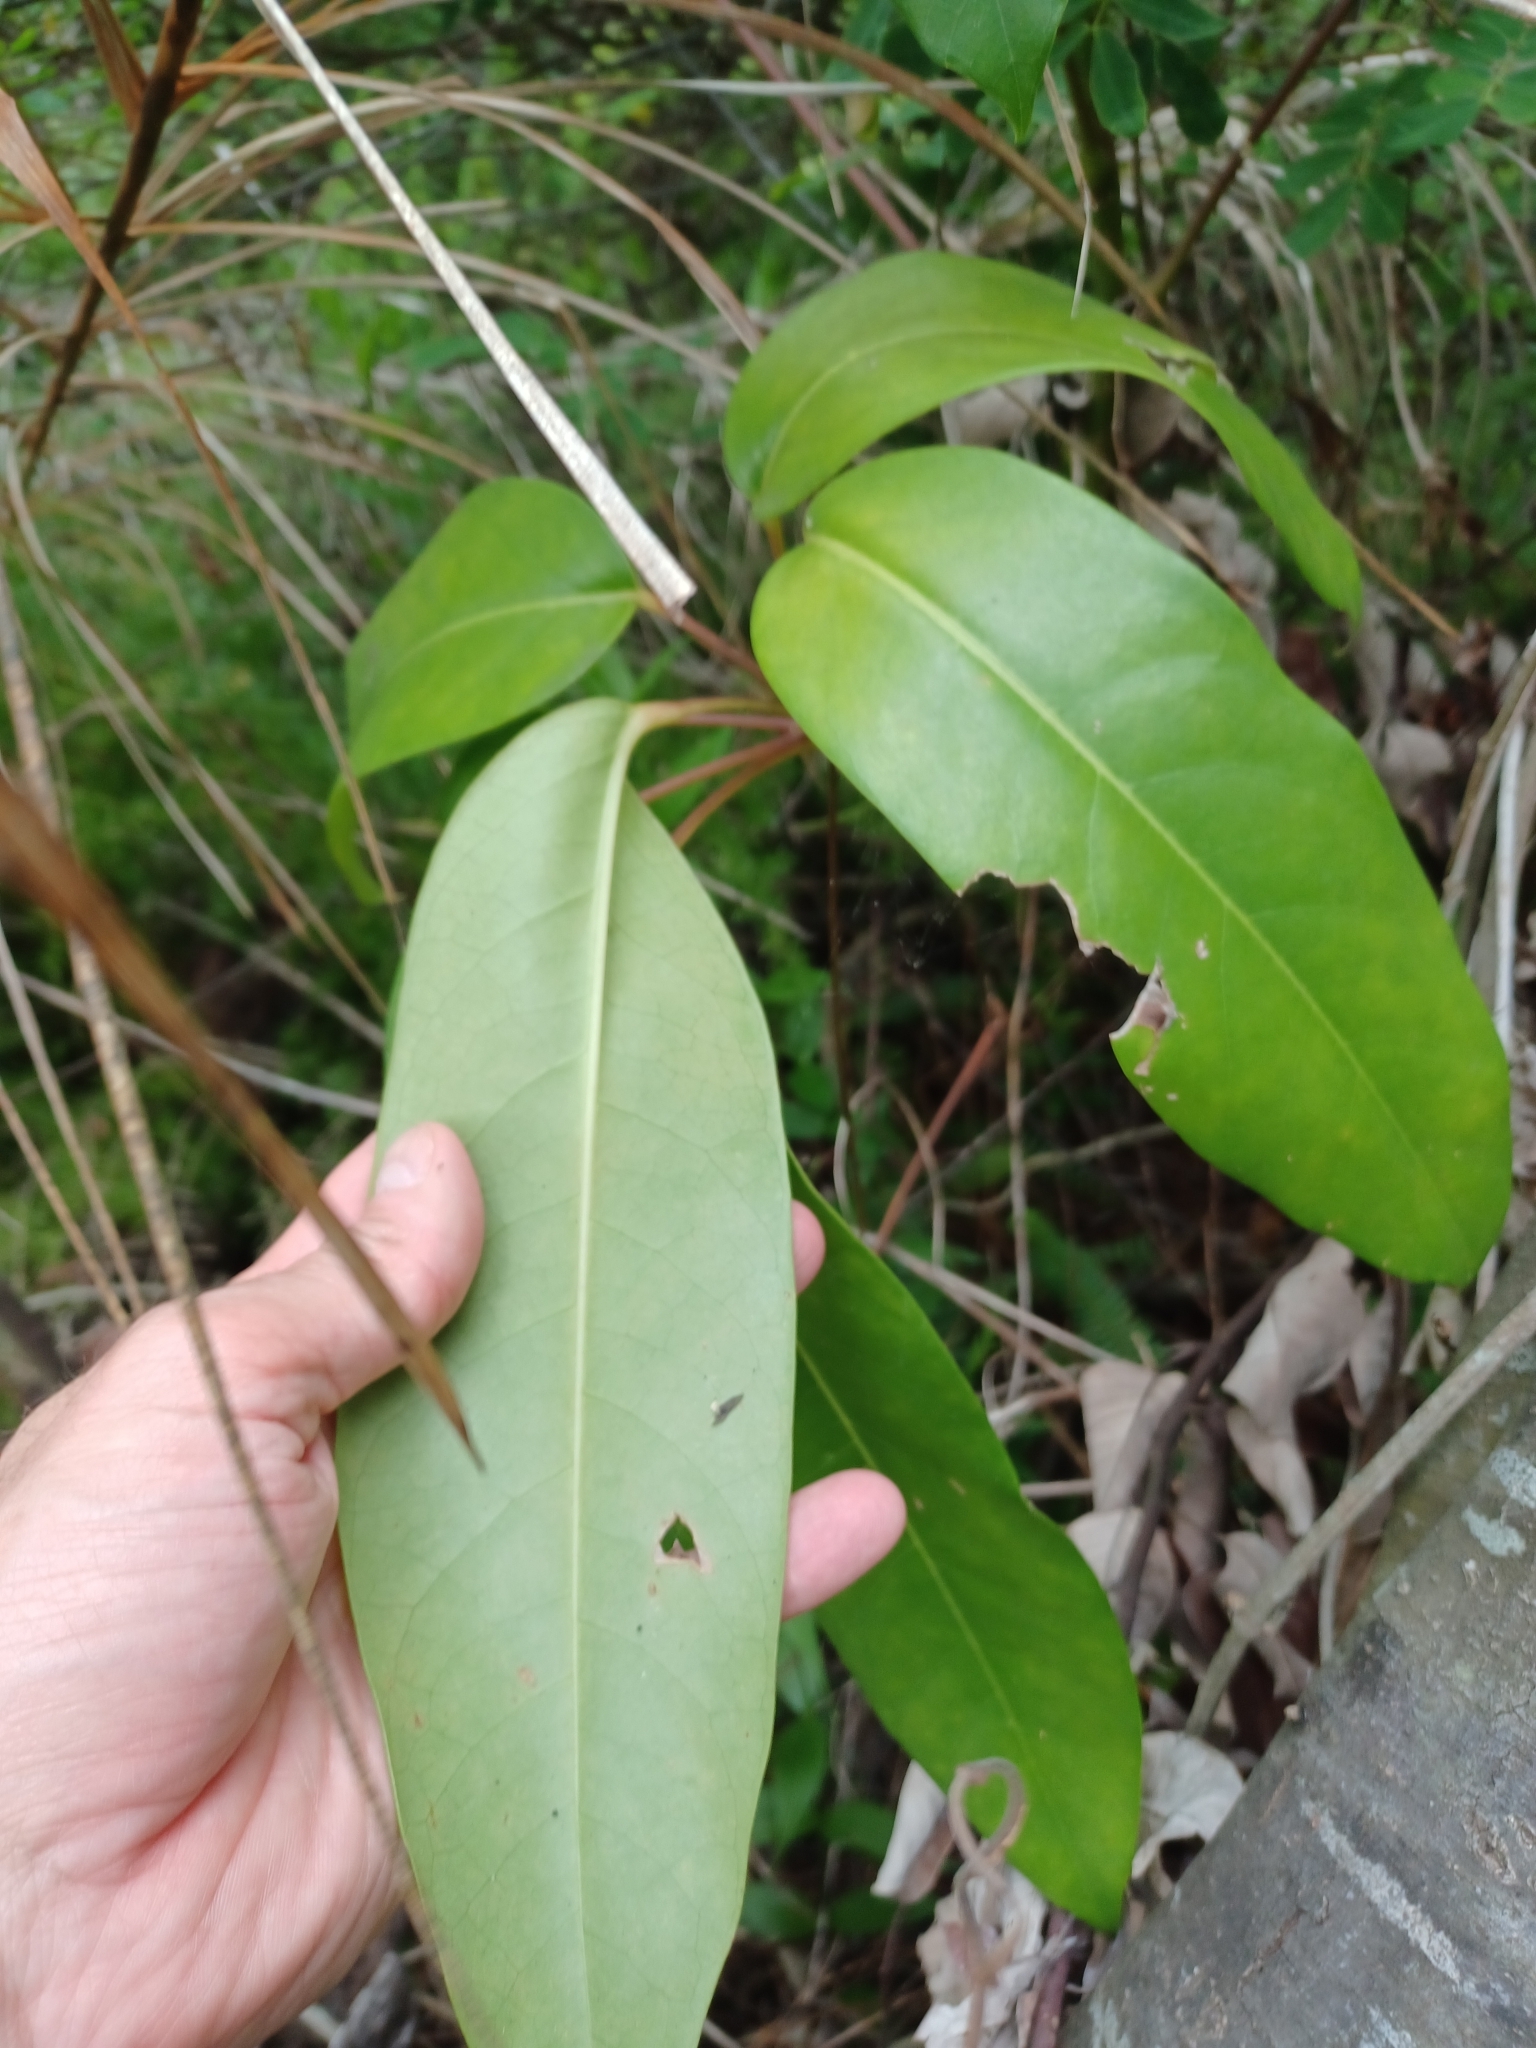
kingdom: Plantae
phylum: Tracheophyta
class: Magnoliopsida
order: Apiales
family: Araliaceae
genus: Heptapleurum
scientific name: Heptapleurum actinophyllum
